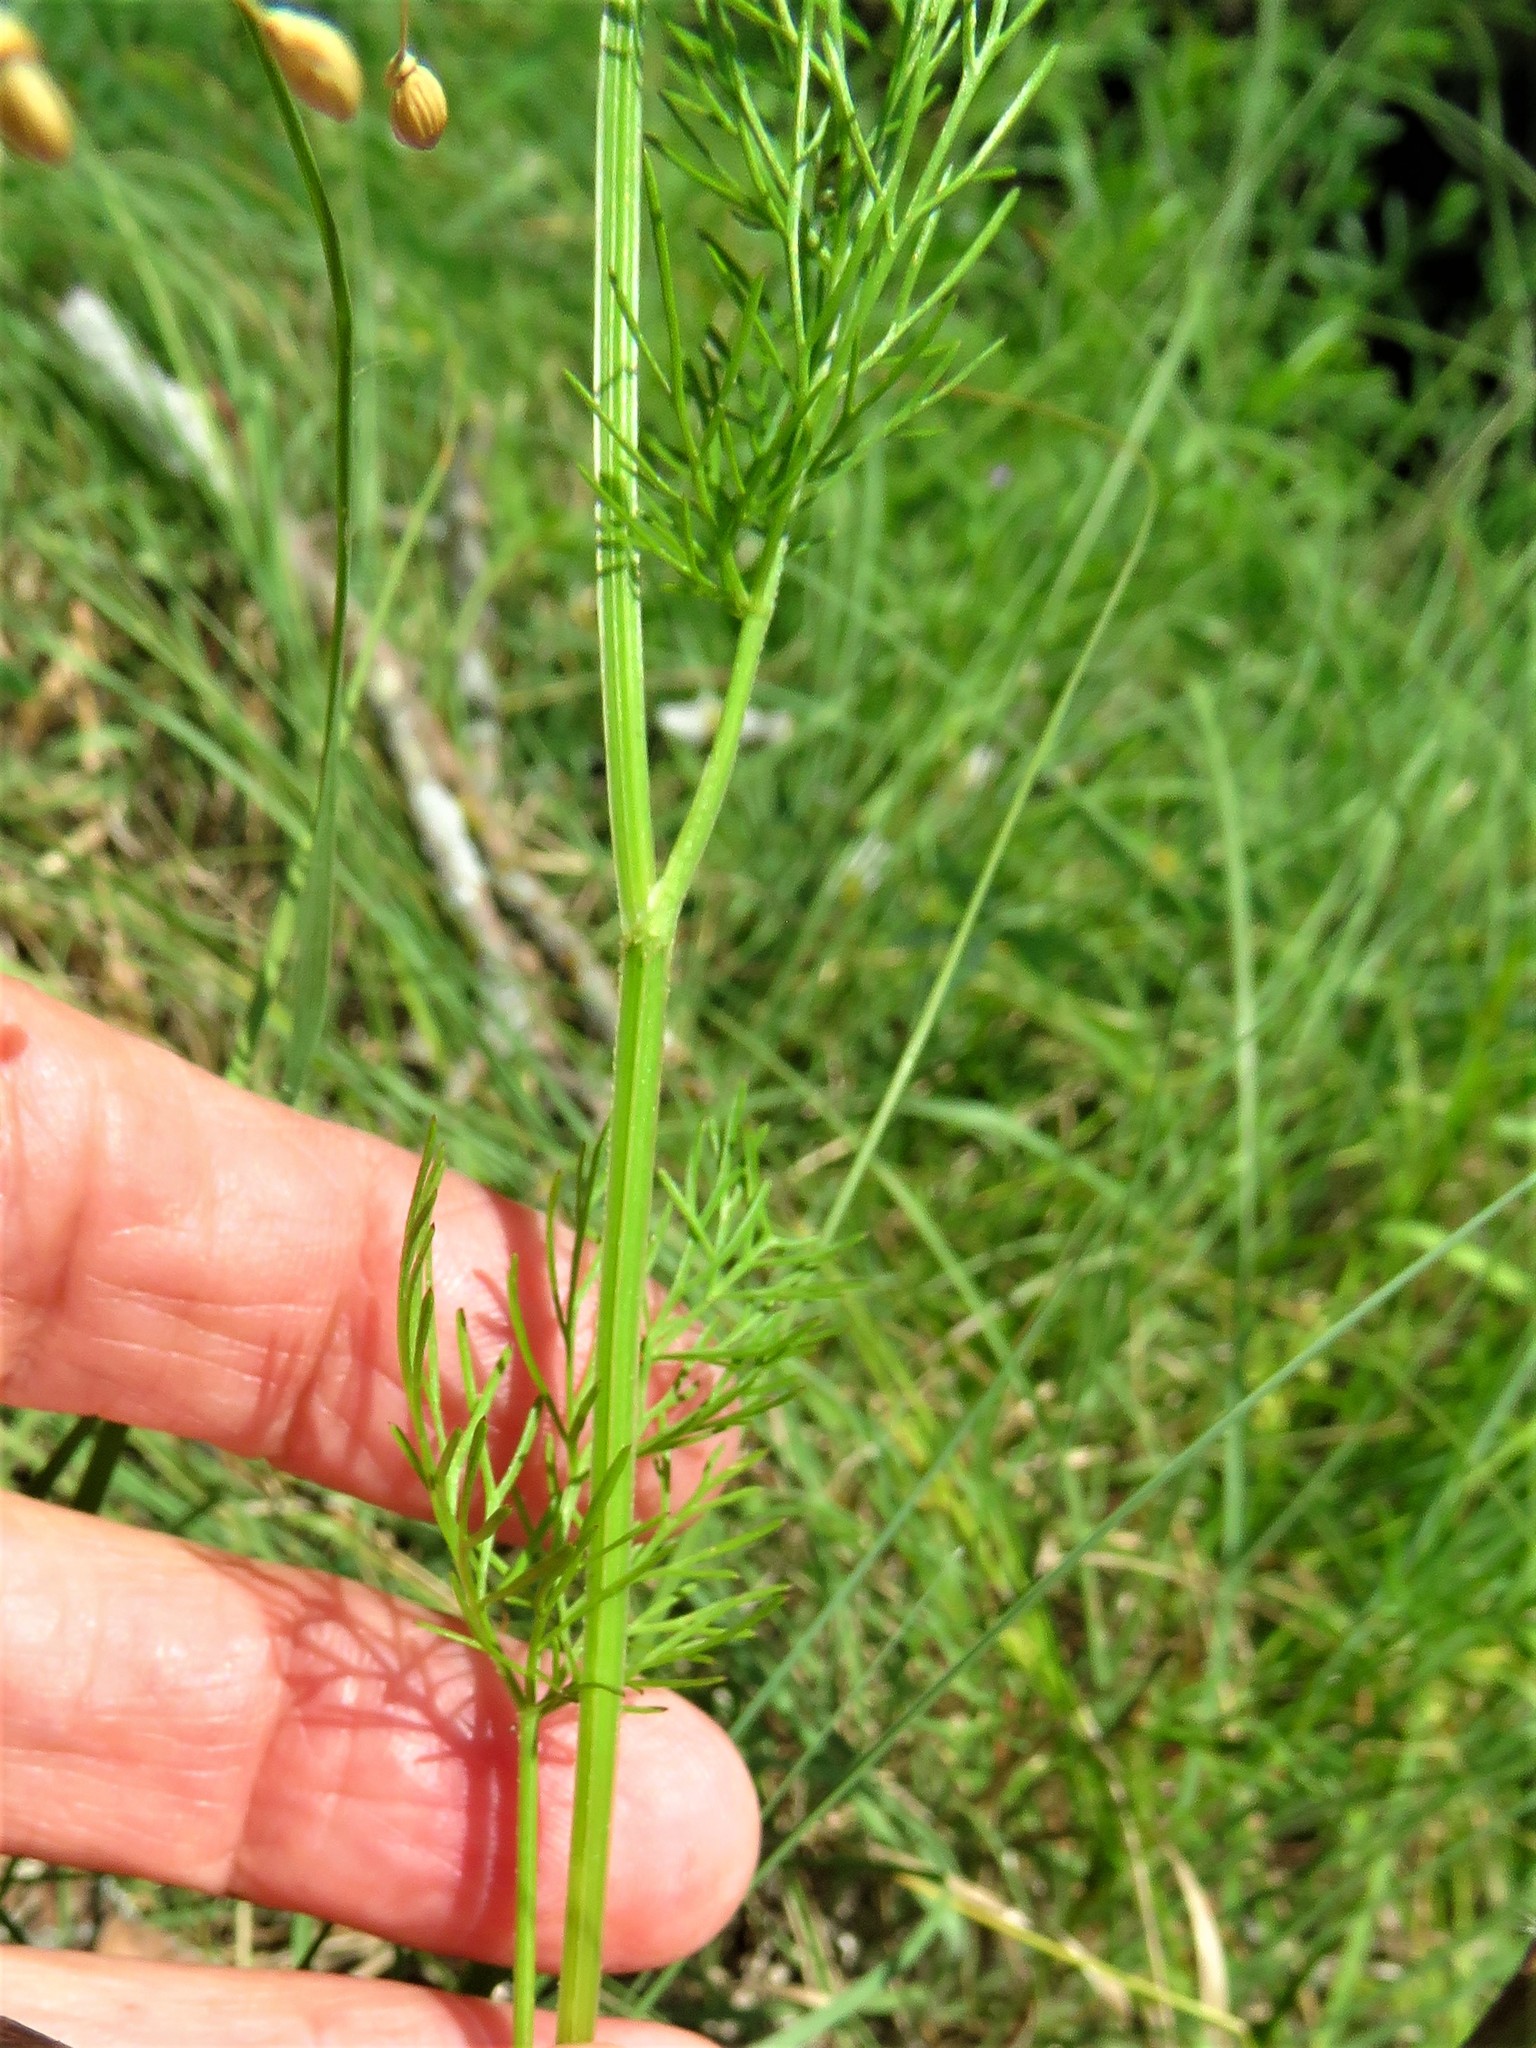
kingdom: Plantae
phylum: Tracheophyta
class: Magnoliopsida
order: Apiales
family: Apiaceae
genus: Atrema
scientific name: Atrema americanum
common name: Prairie-bishop
